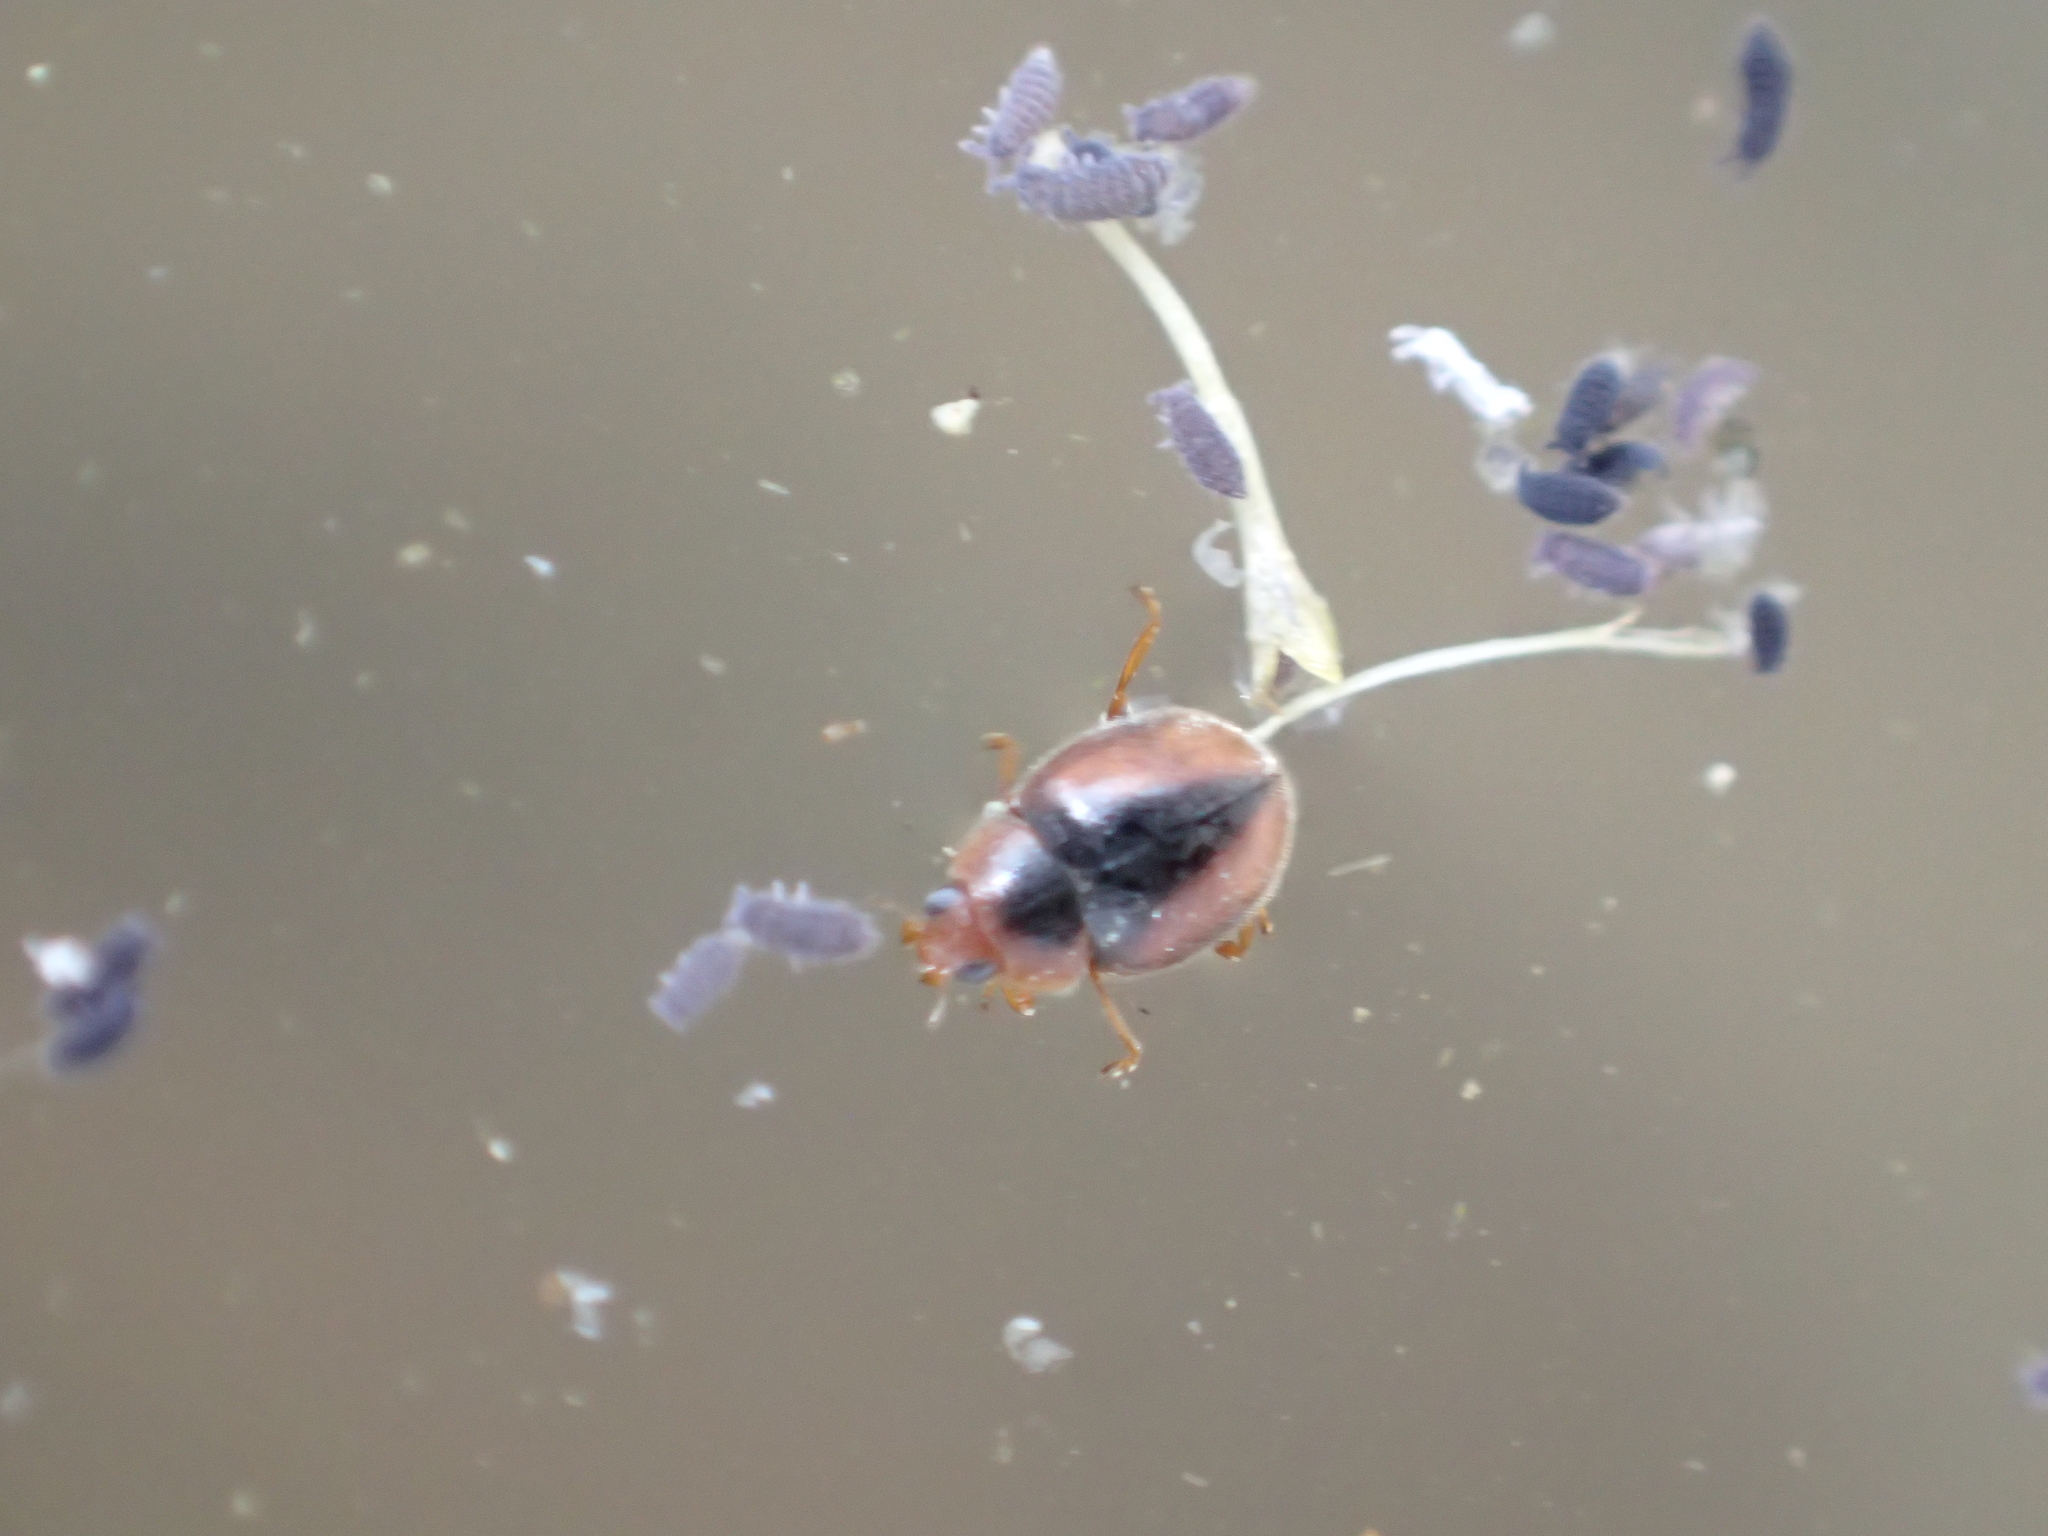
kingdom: Animalia
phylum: Arthropoda
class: Insecta
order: Coleoptera
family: Coccinellidae
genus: Scymnus
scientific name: Scymnus loewii
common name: Dusky lady beetle
